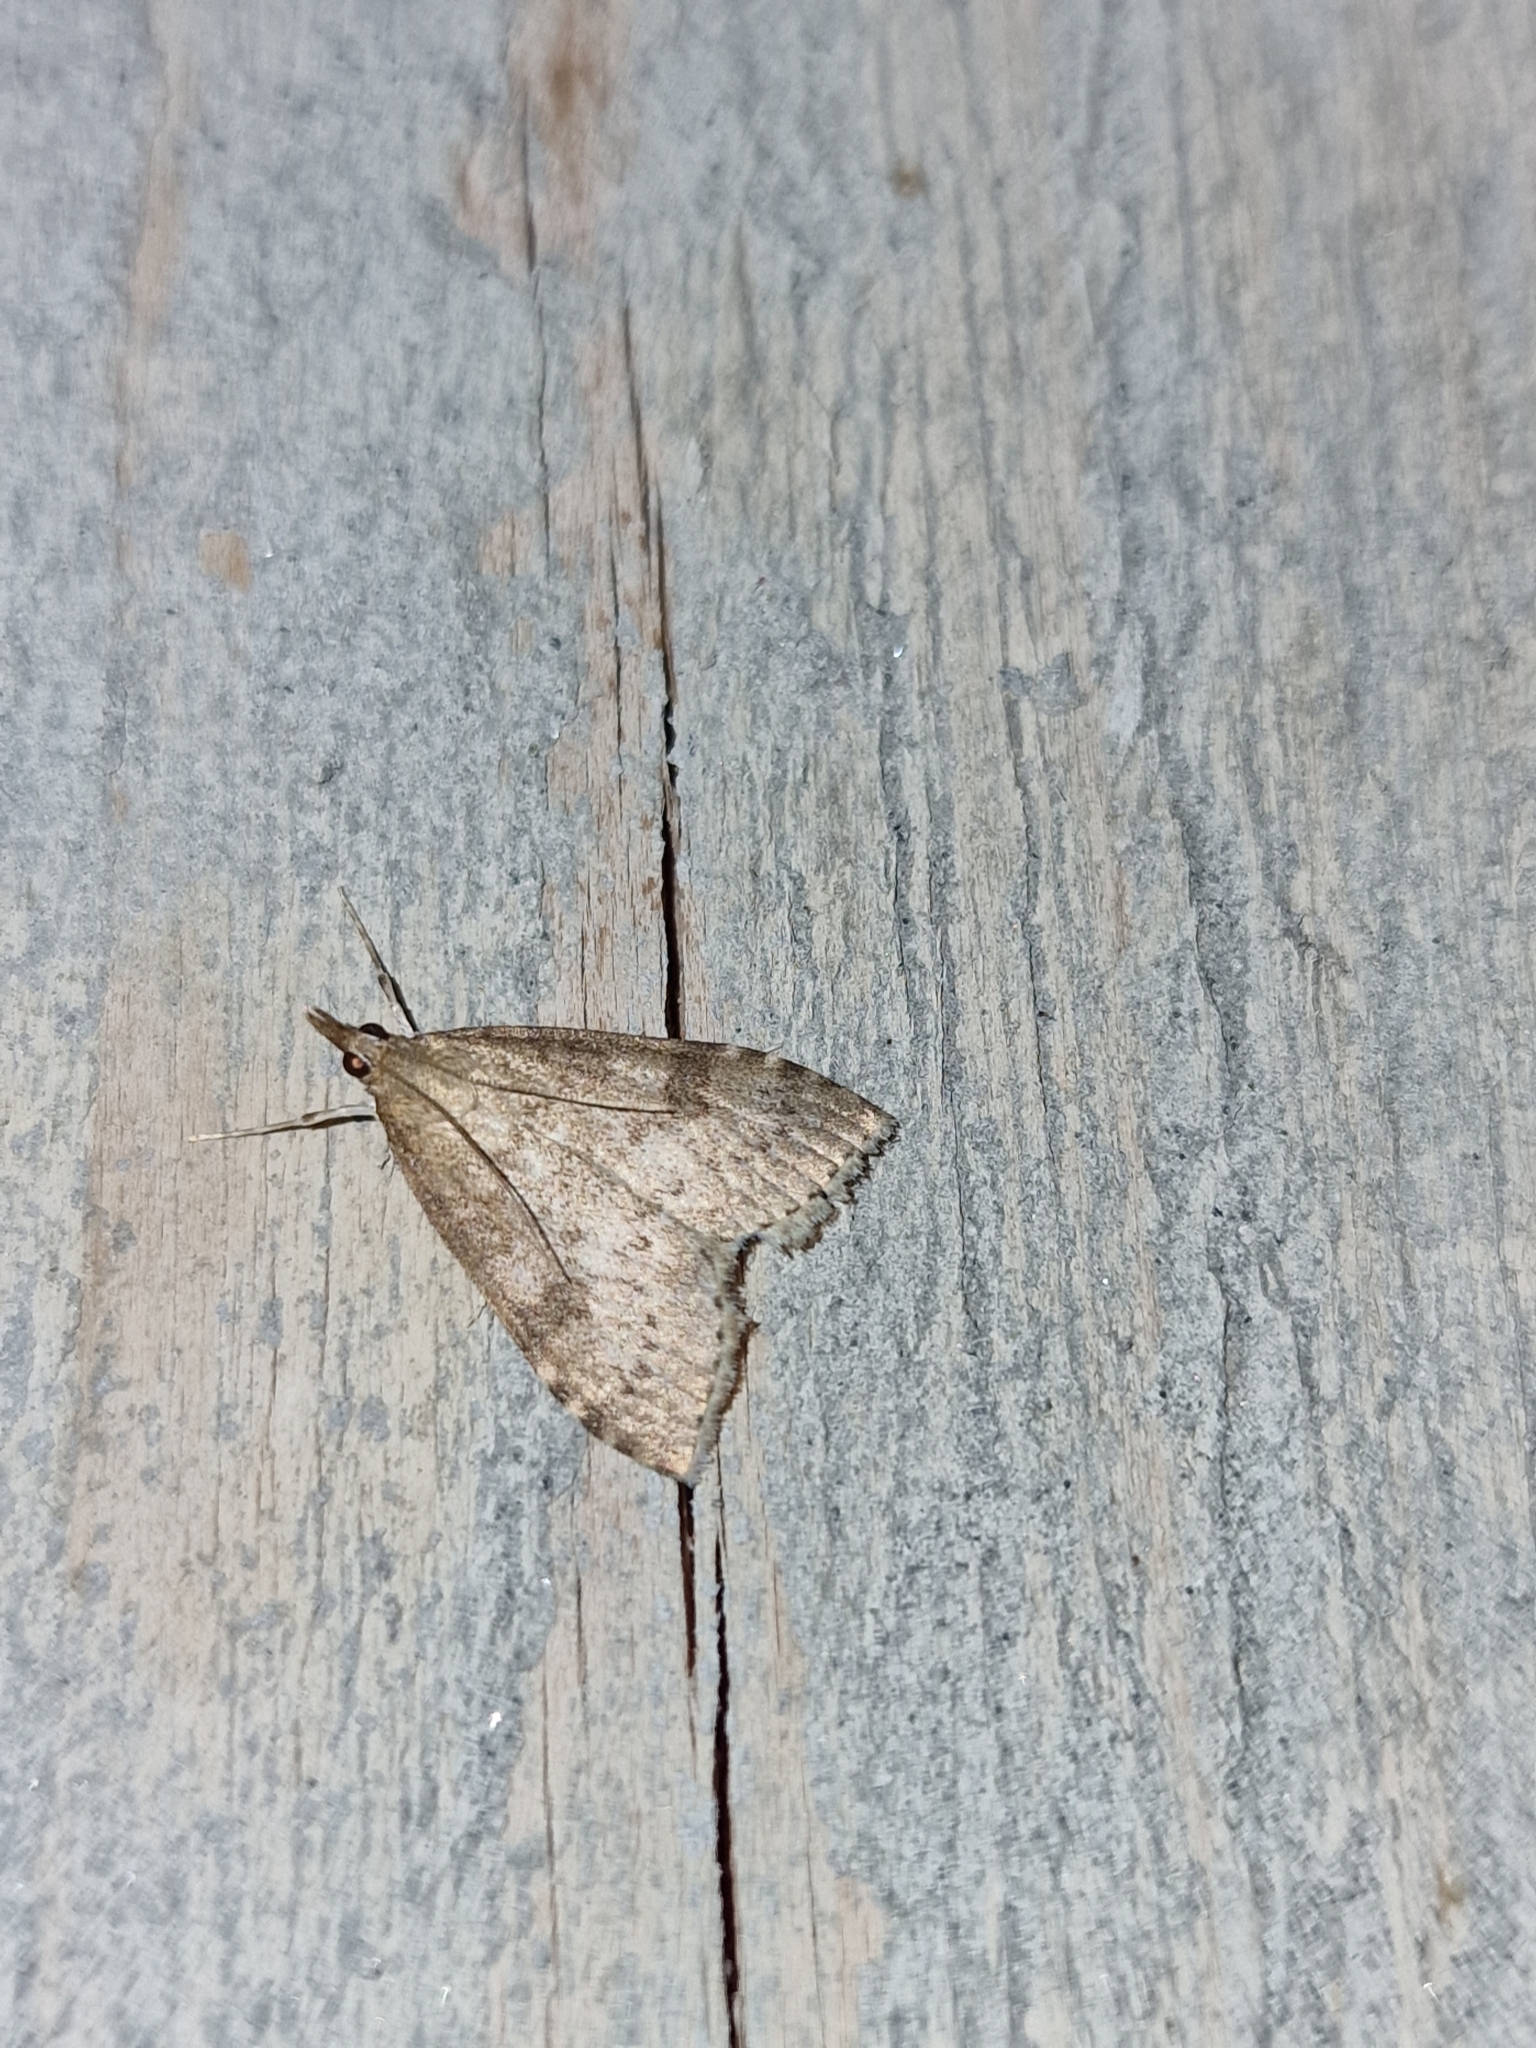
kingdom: Animalia
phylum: Arthropoda
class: Insecta
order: Lepidoptera
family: Crambidae
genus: Udea
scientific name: Udea prunalis
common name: Dusky pearl
